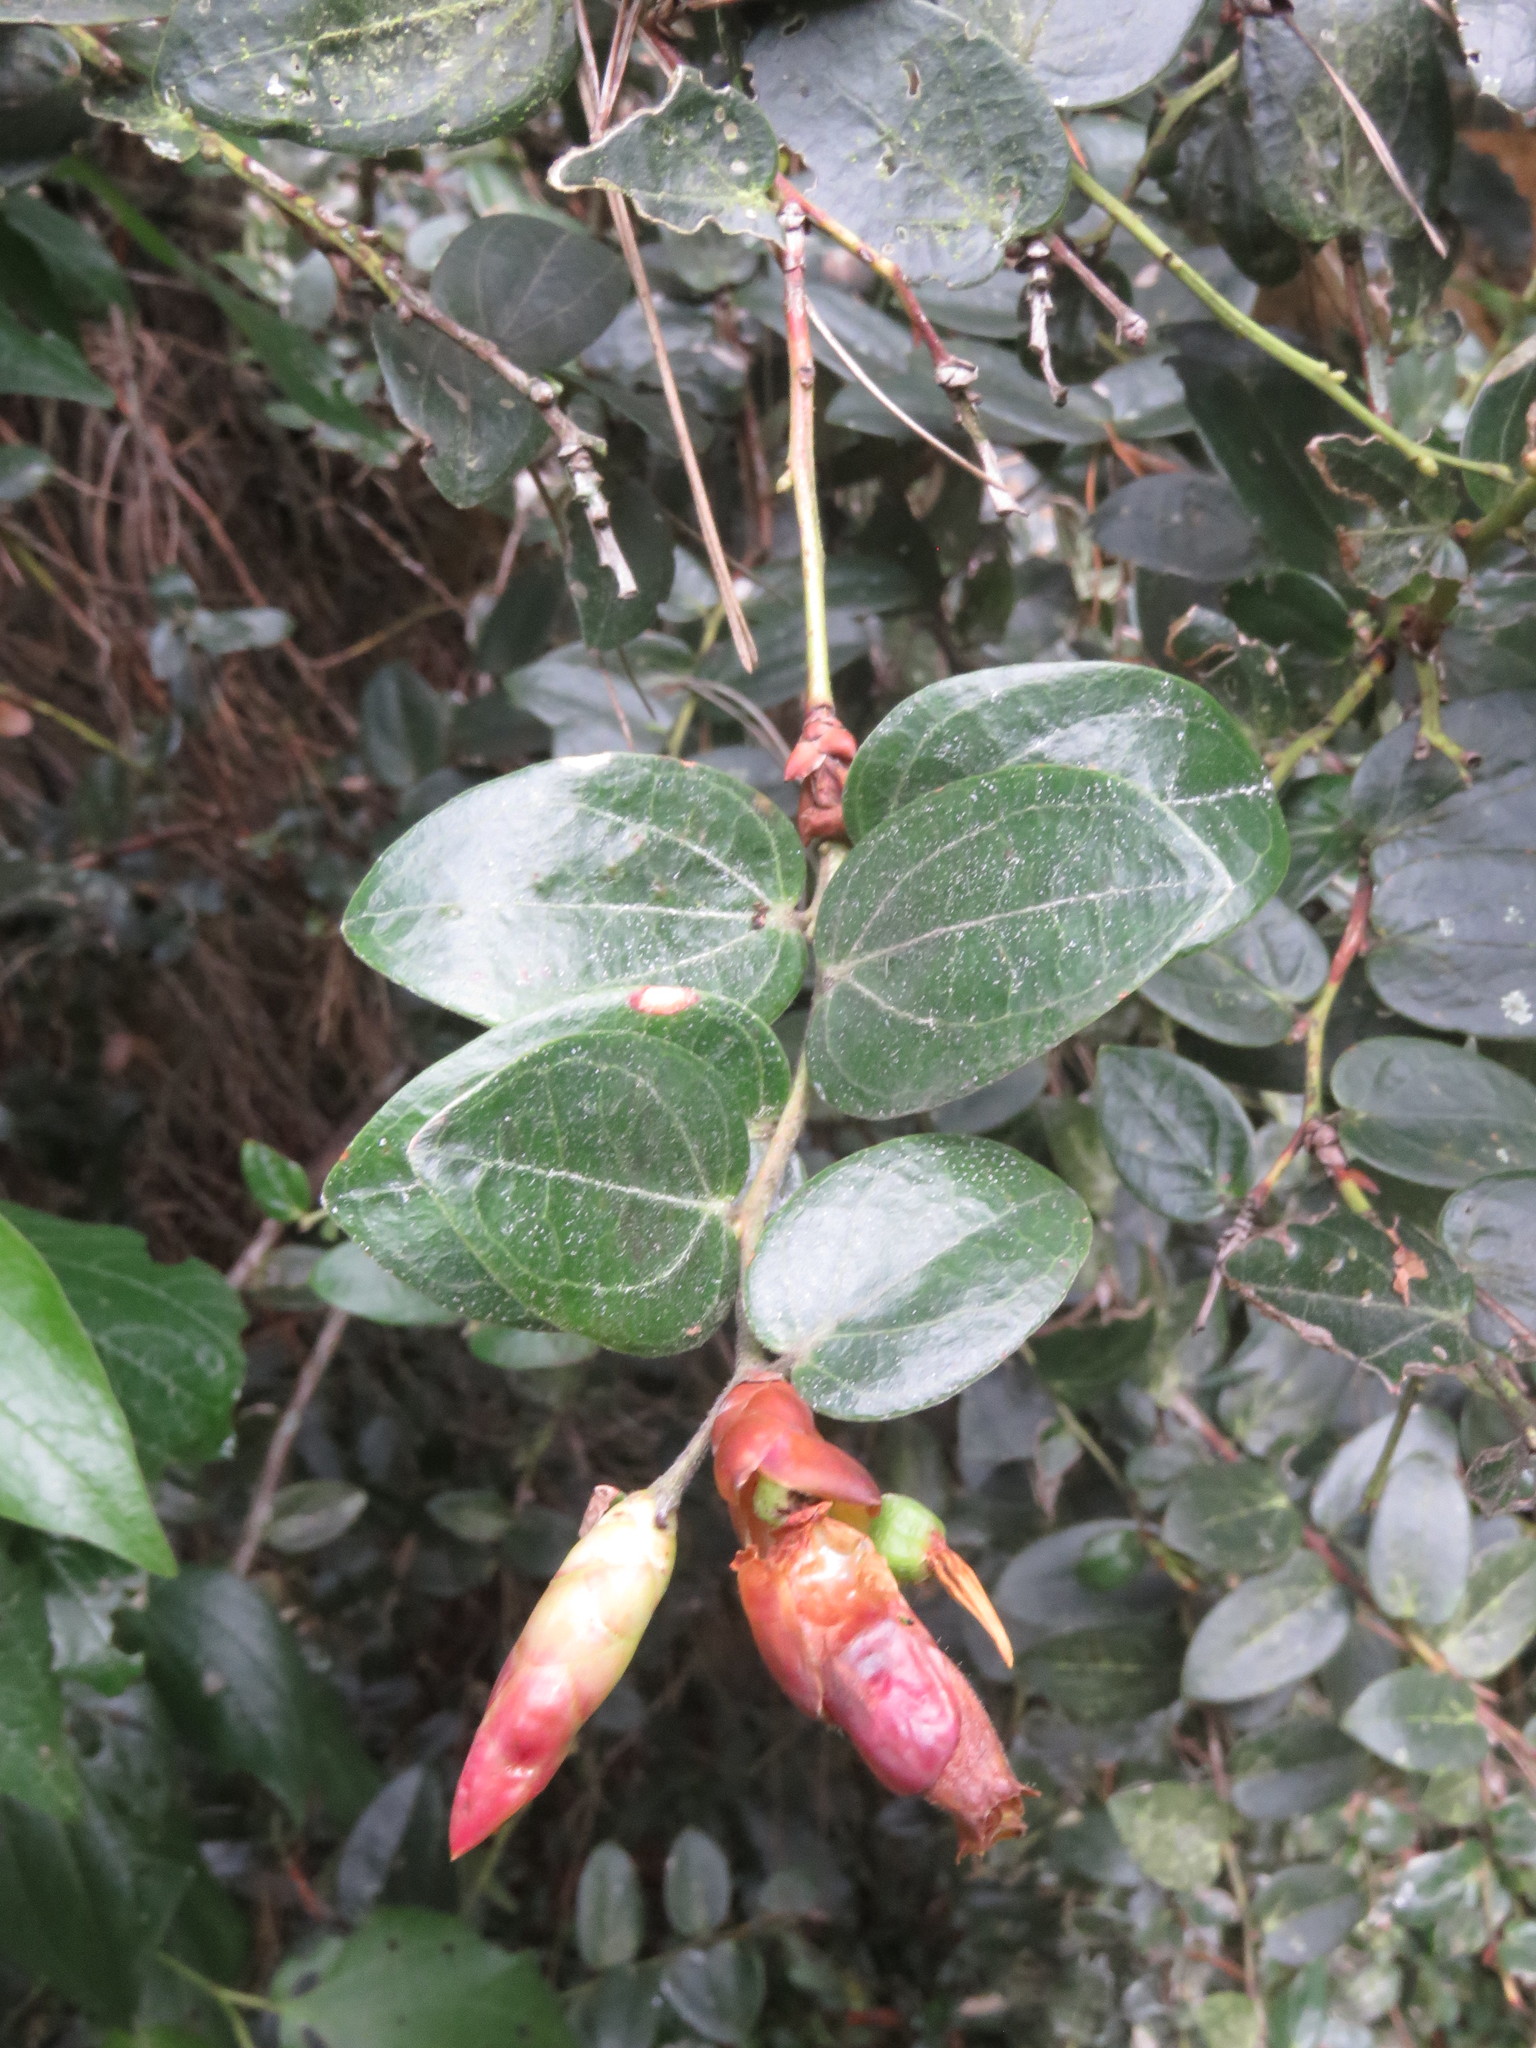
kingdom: Plantae
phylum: Tracheophyta
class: Magnoliopsida
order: Ericales
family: Ericaceae
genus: Cavendishia
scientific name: Cavendishia bracteata
